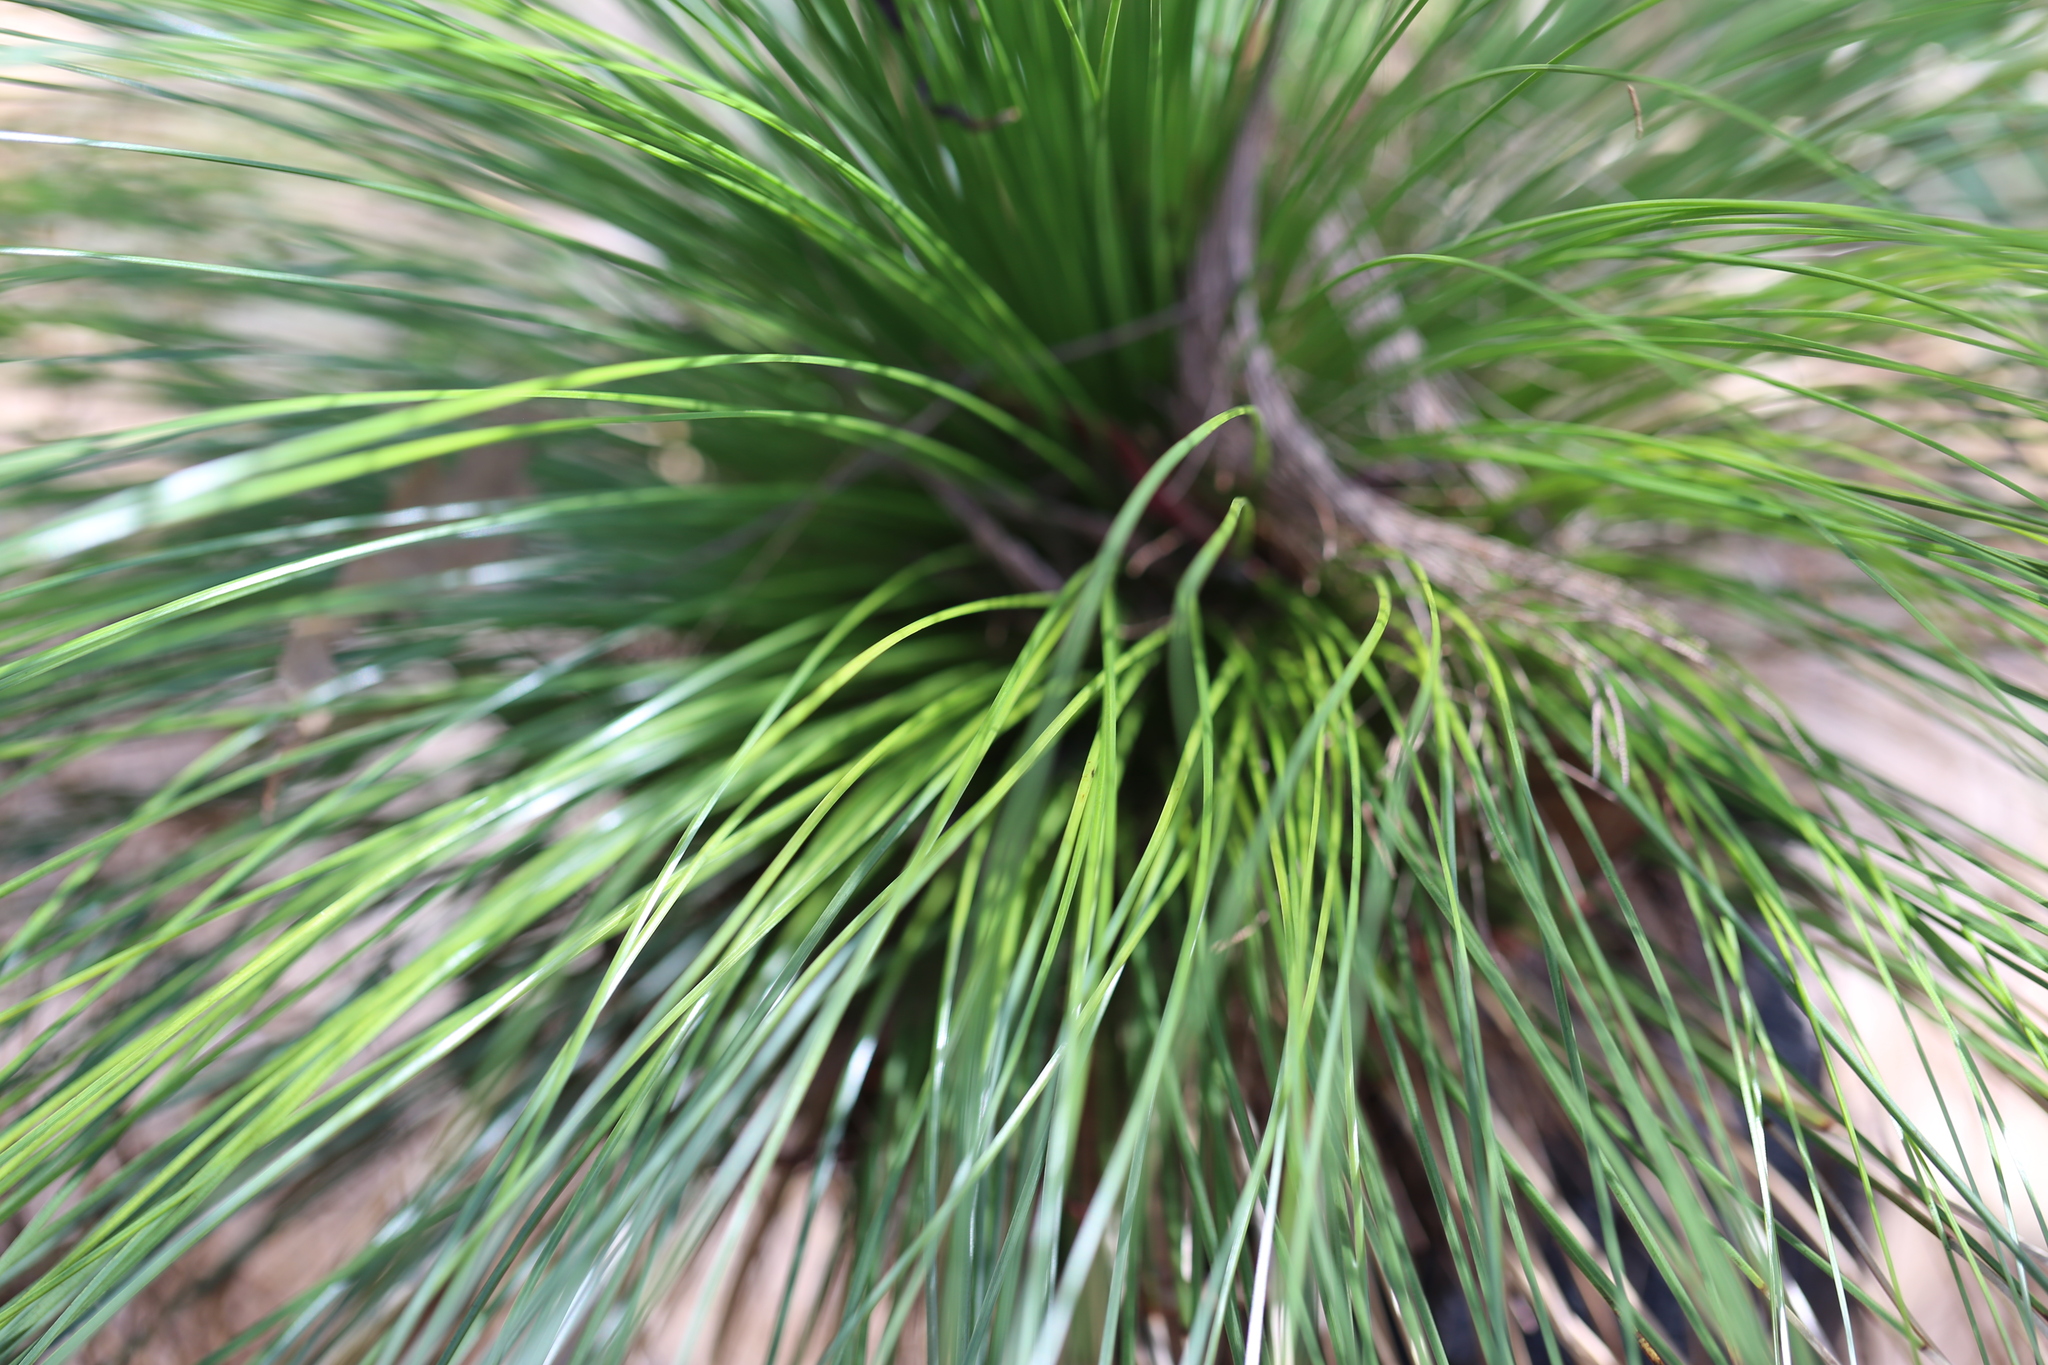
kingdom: Plantae
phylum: Tracheophyta
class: Liliopsida
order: Asparagales
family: Asphodelaceae
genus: Xanthorrhoea
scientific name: Xanthorrhoea johnsonii
